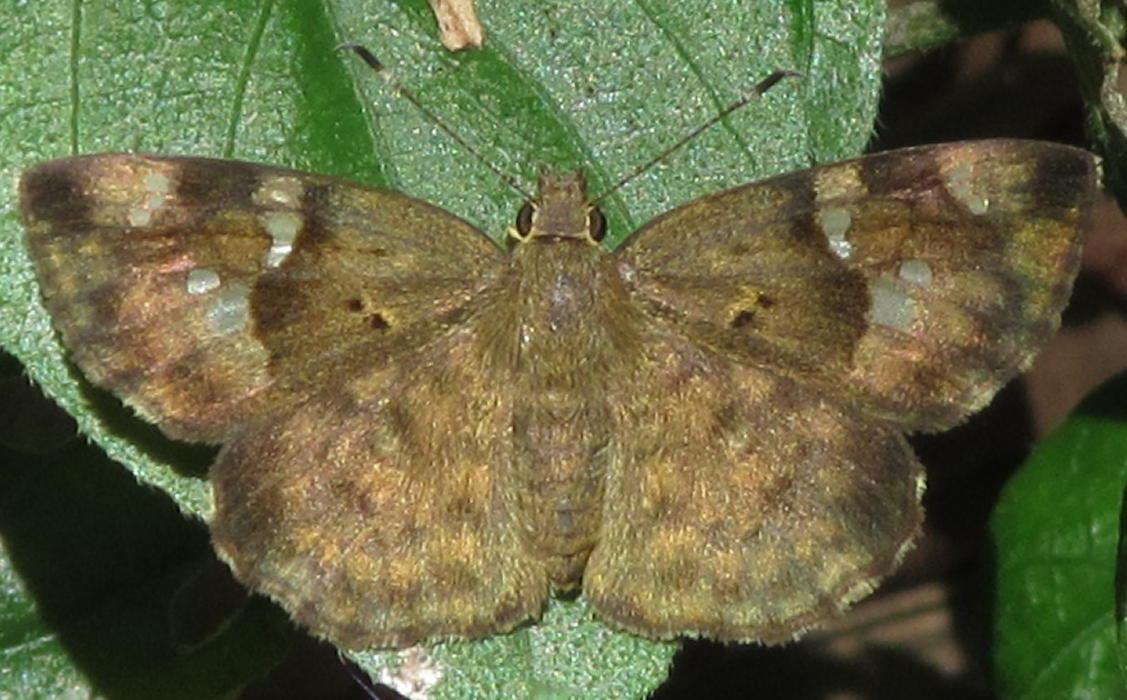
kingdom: Animalia
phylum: Arthropoda
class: Insecta
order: Lepidoptera
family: Hesperiidae
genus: Sarangesa
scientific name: Sarangesa motozi
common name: Forest elfin
